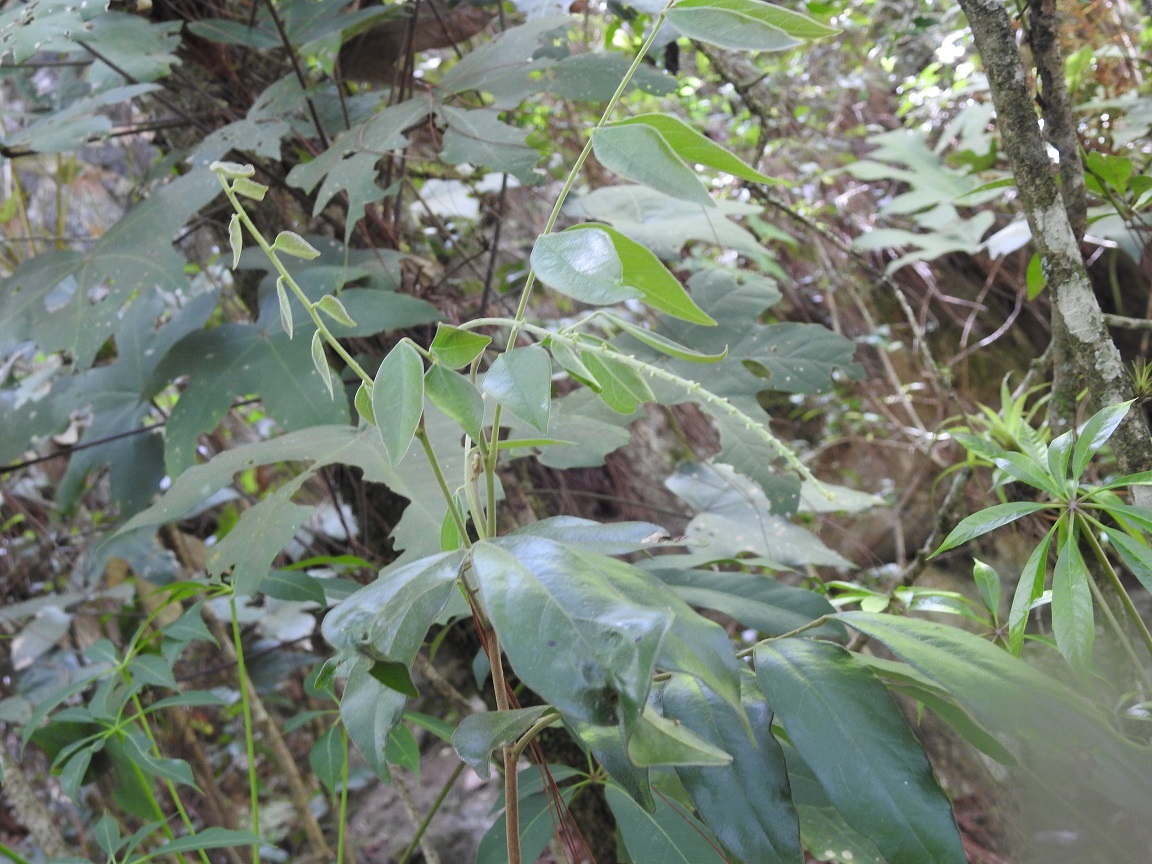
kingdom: Plantae
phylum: Tracheophyta
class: Magnoliopsida
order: Picramniales
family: Picramniaceae
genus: Picramnia
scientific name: Picramnia deflexa
